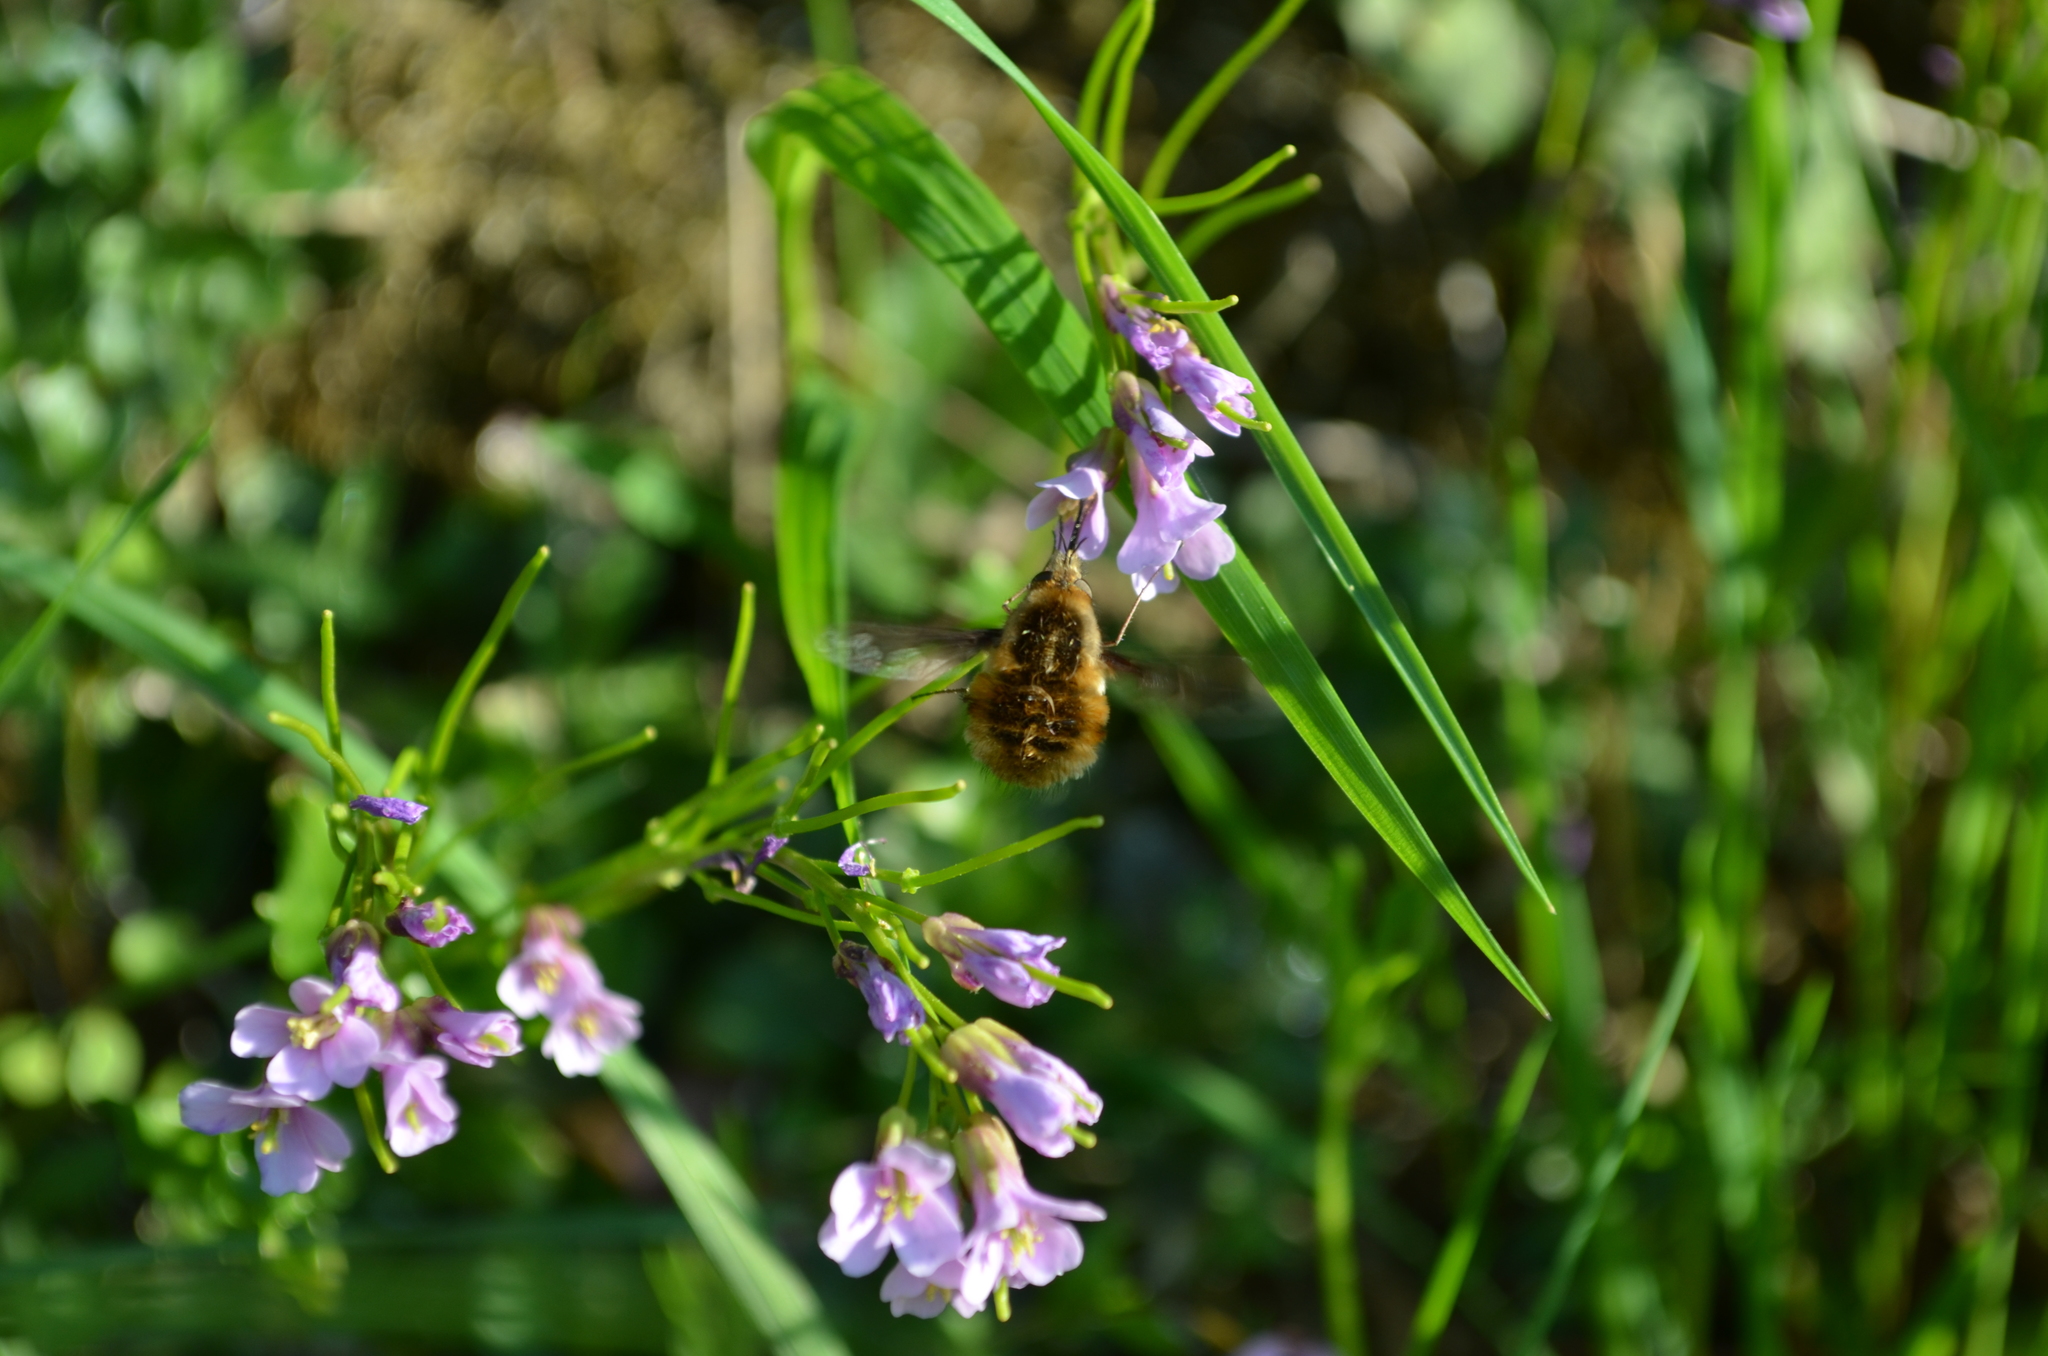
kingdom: Animalia
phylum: Arthropoda
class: Insecta
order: Diptera
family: Bombyliidae
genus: Bombylius
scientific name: Bombylius major
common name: Bee fly
